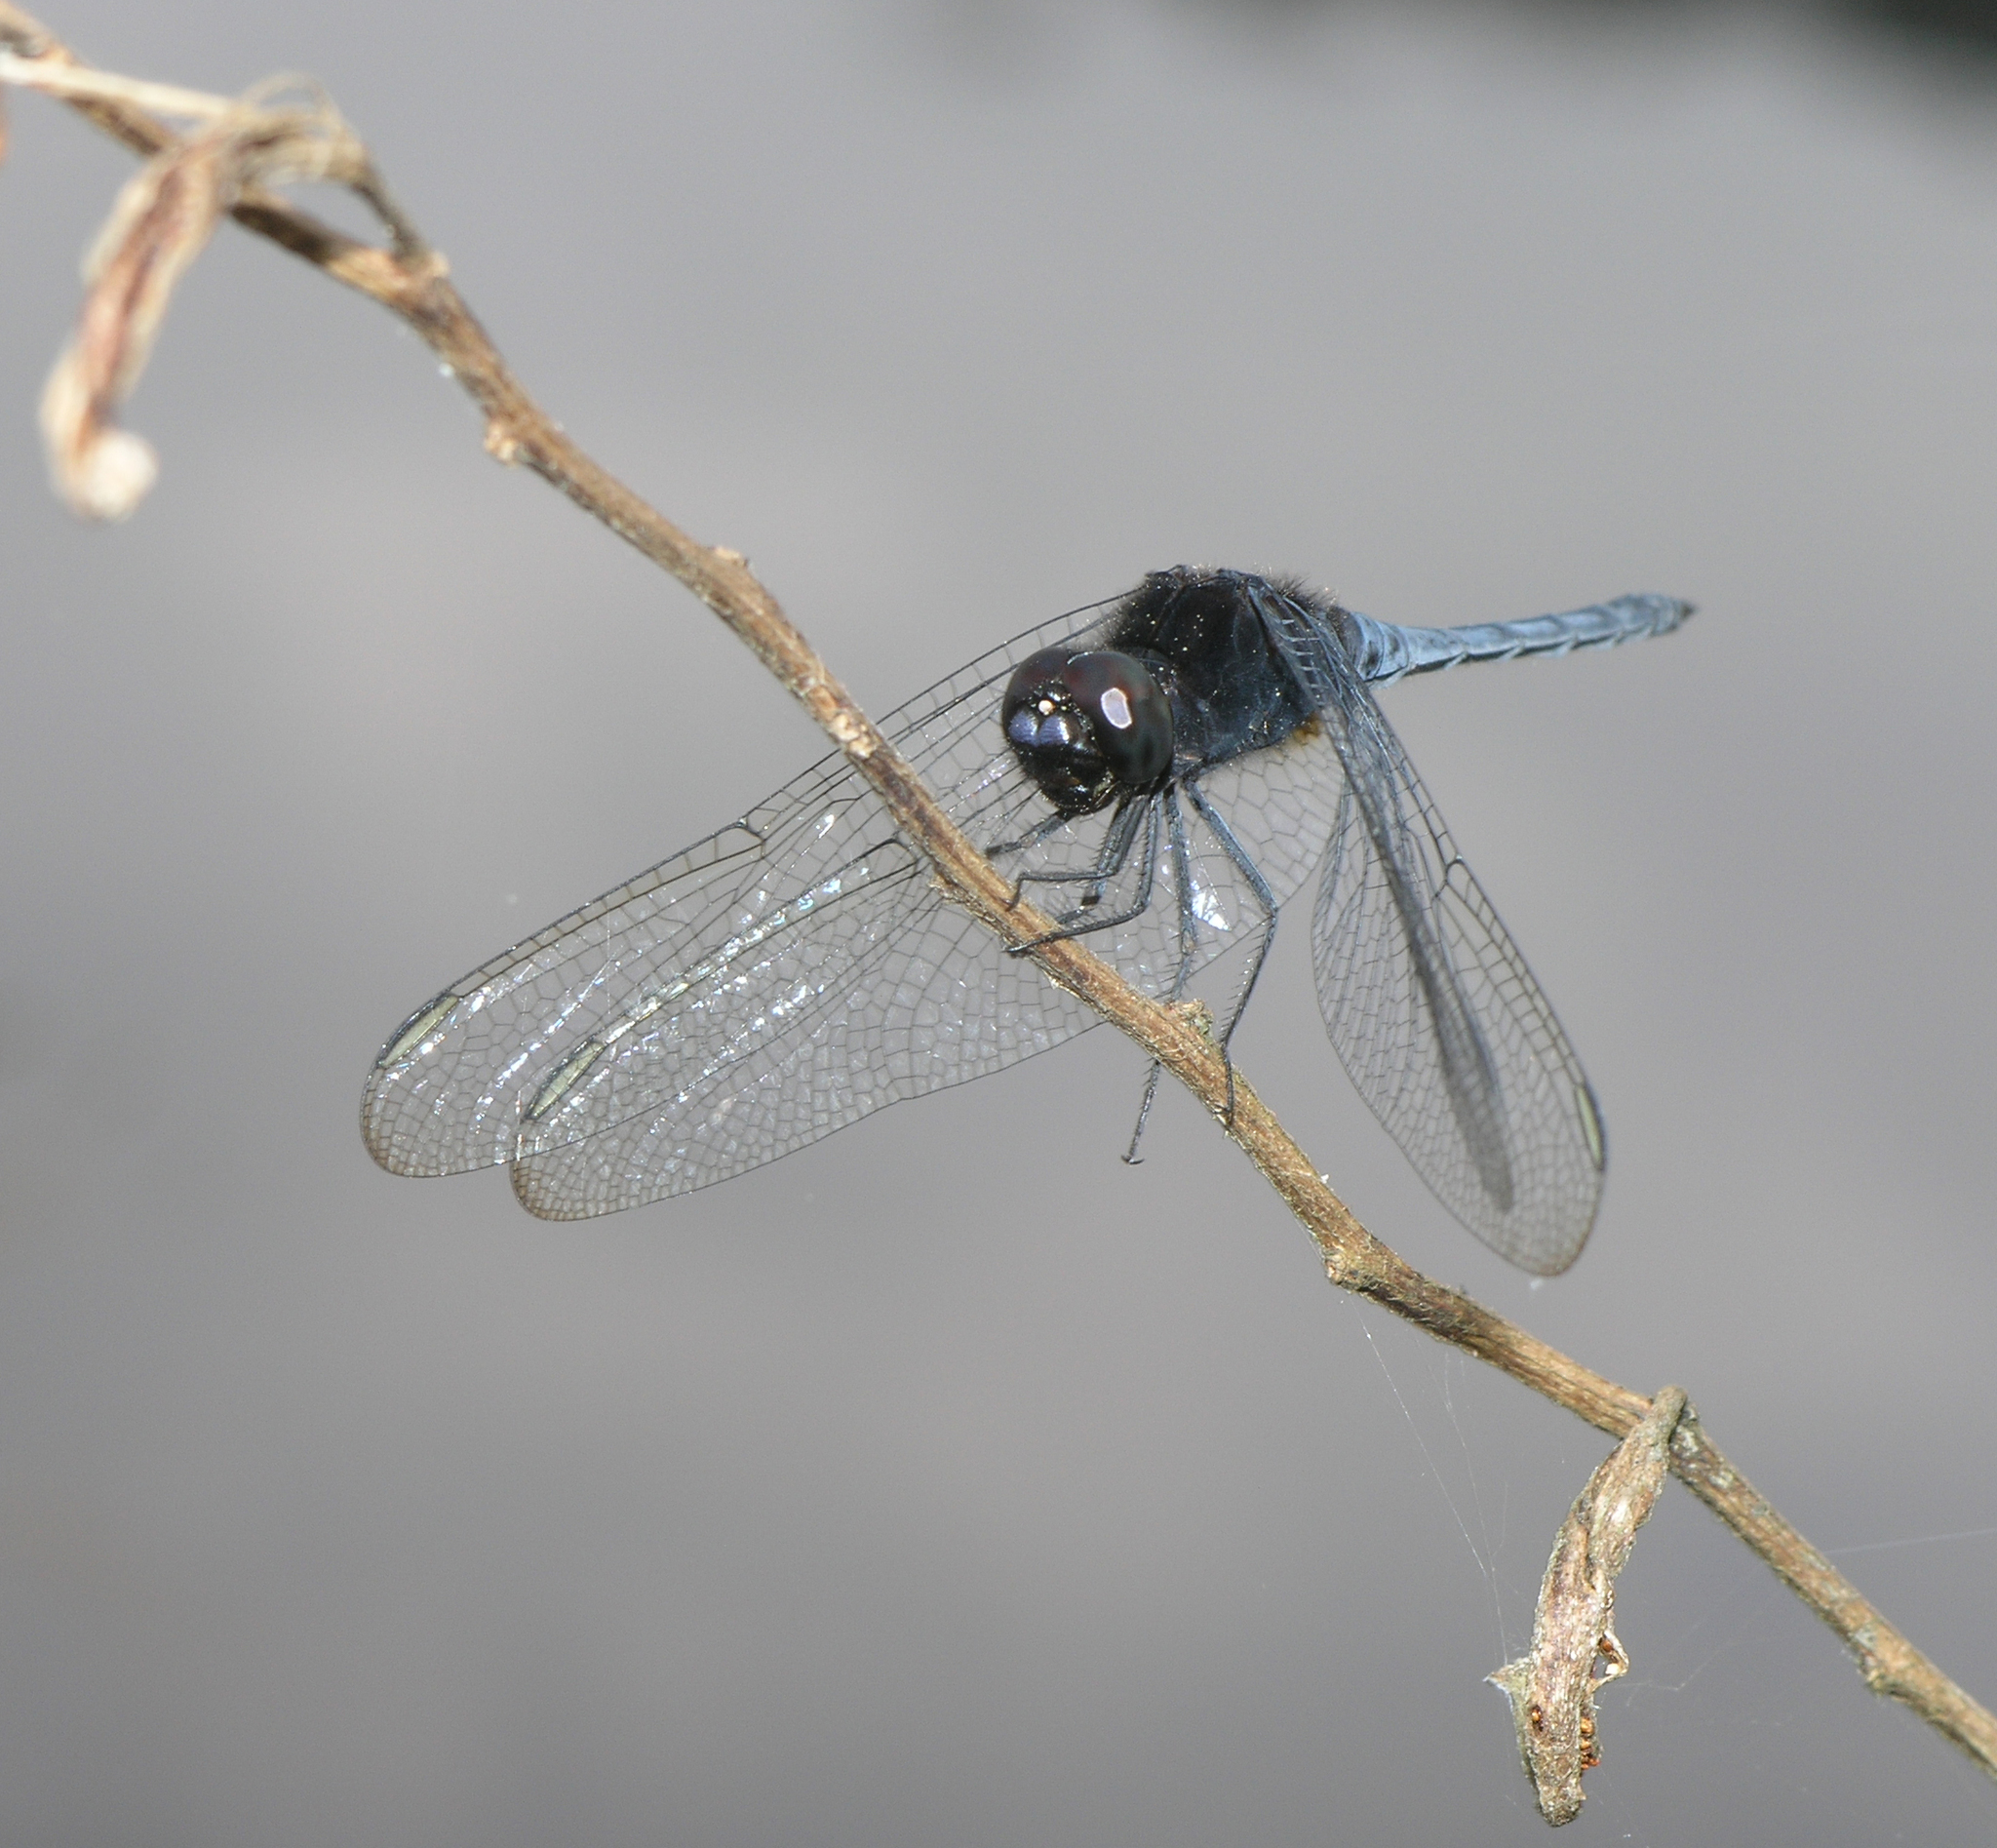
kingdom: Animalia
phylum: Arthropoda
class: Insecta
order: Odonata
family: Libellulidae
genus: Indothemis
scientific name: Indothemis limbata
